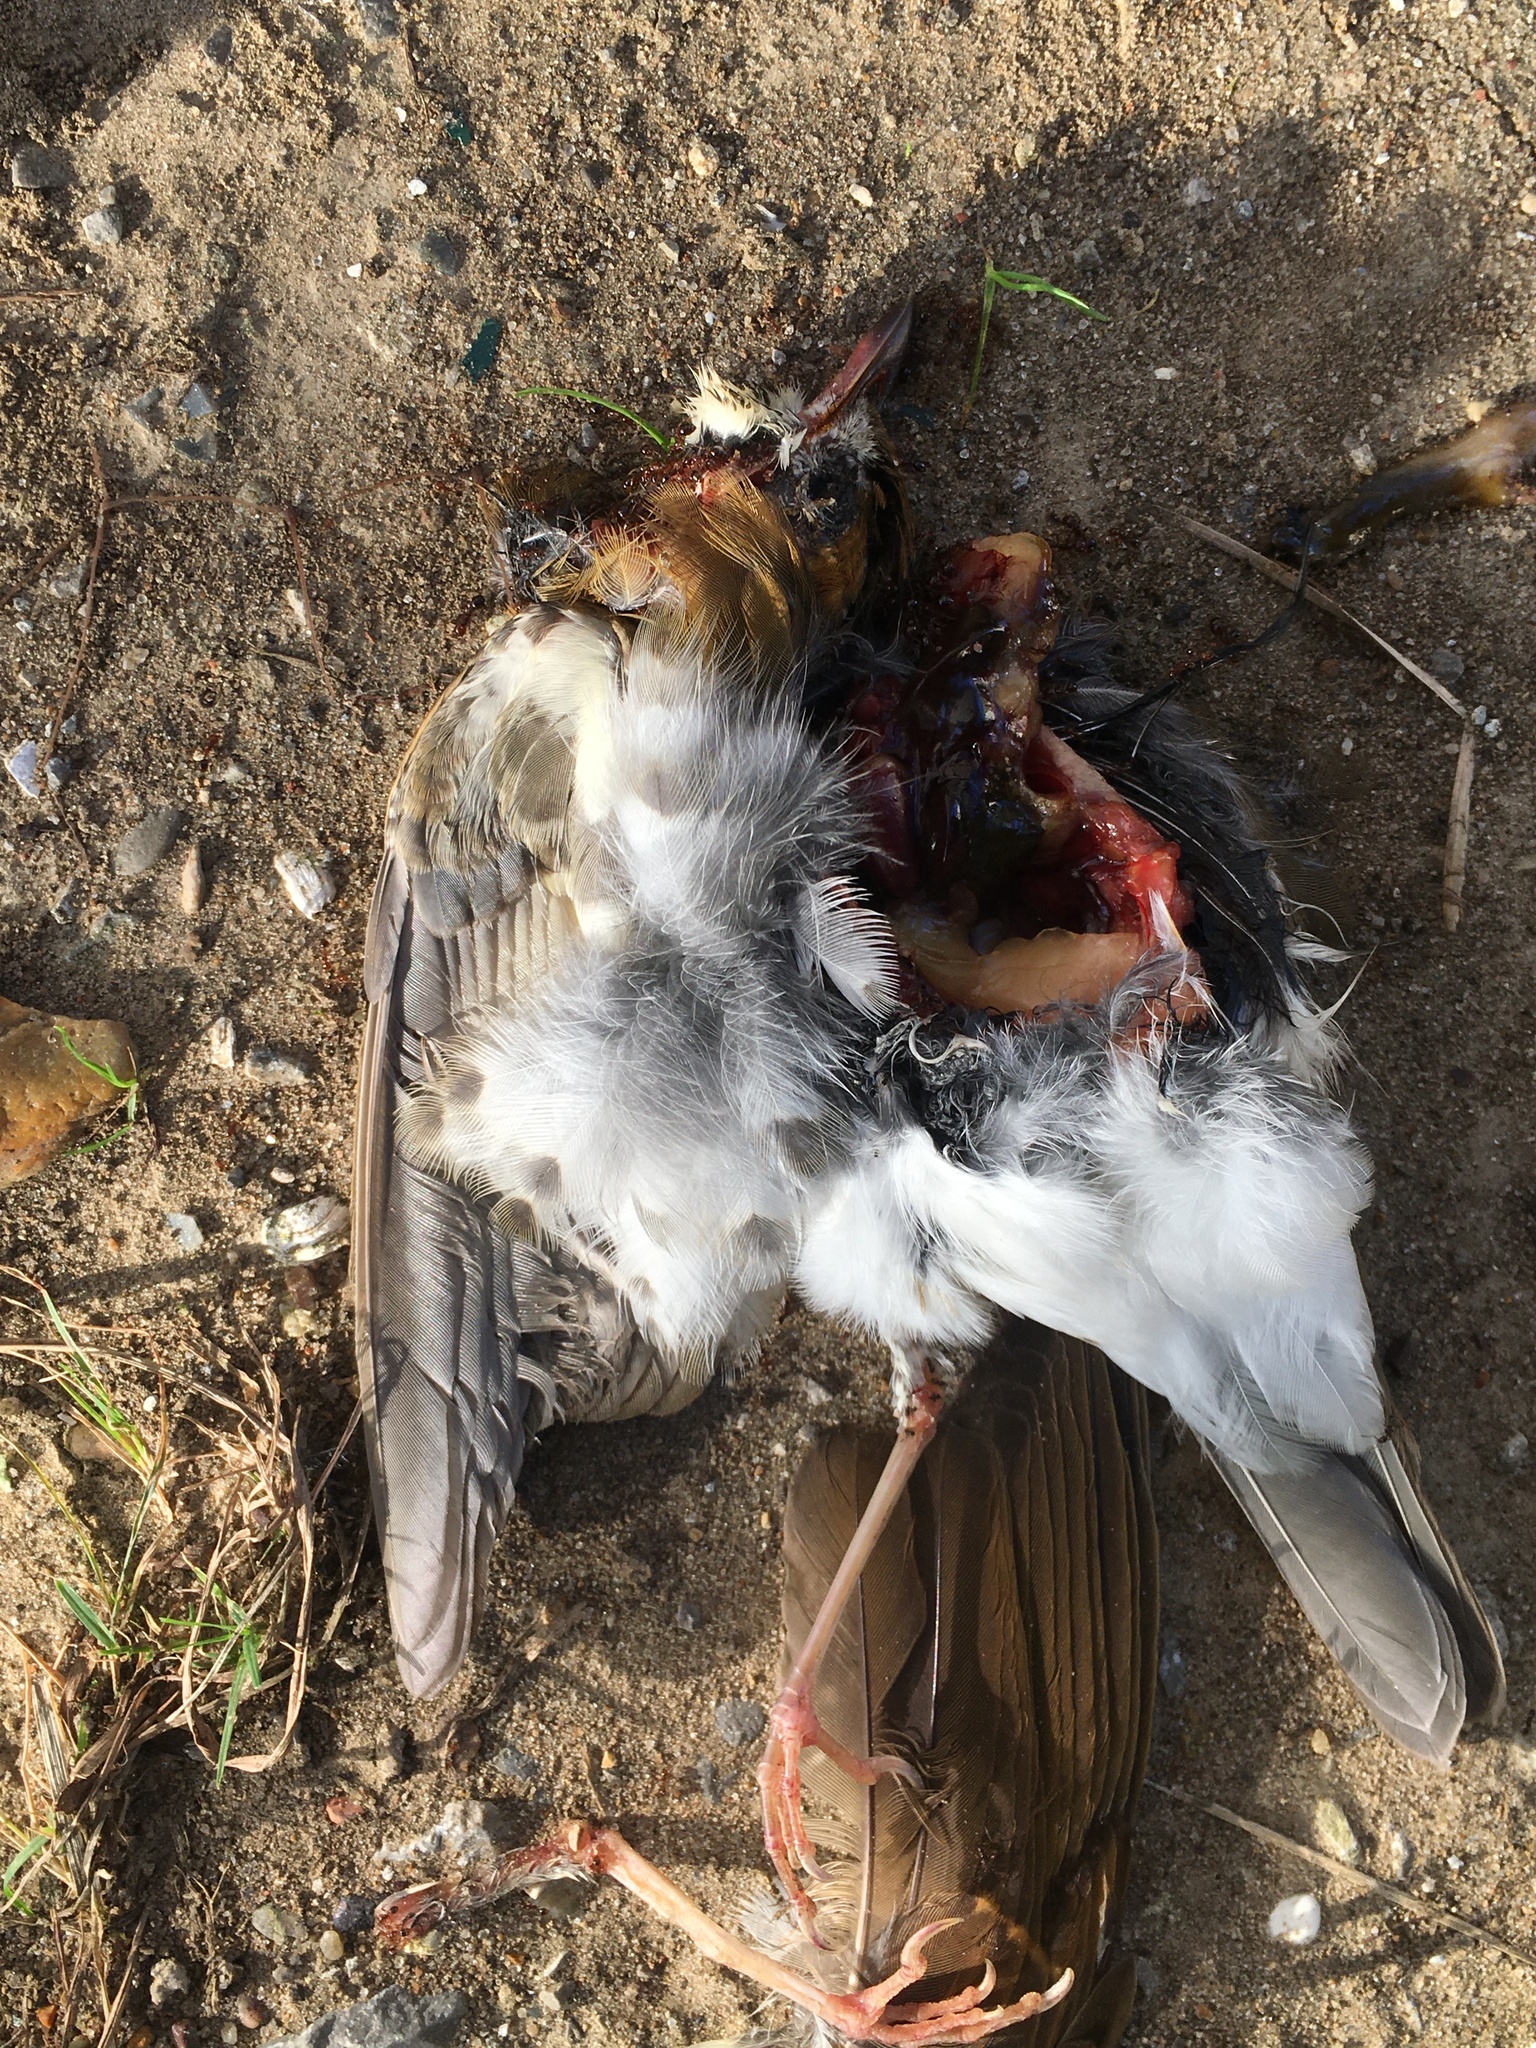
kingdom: Animalia
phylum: Chordata
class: Aves
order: Passeriformes
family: Turdidae
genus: Hylocichla
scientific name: Hylocichla mustelina
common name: Wood thrush
